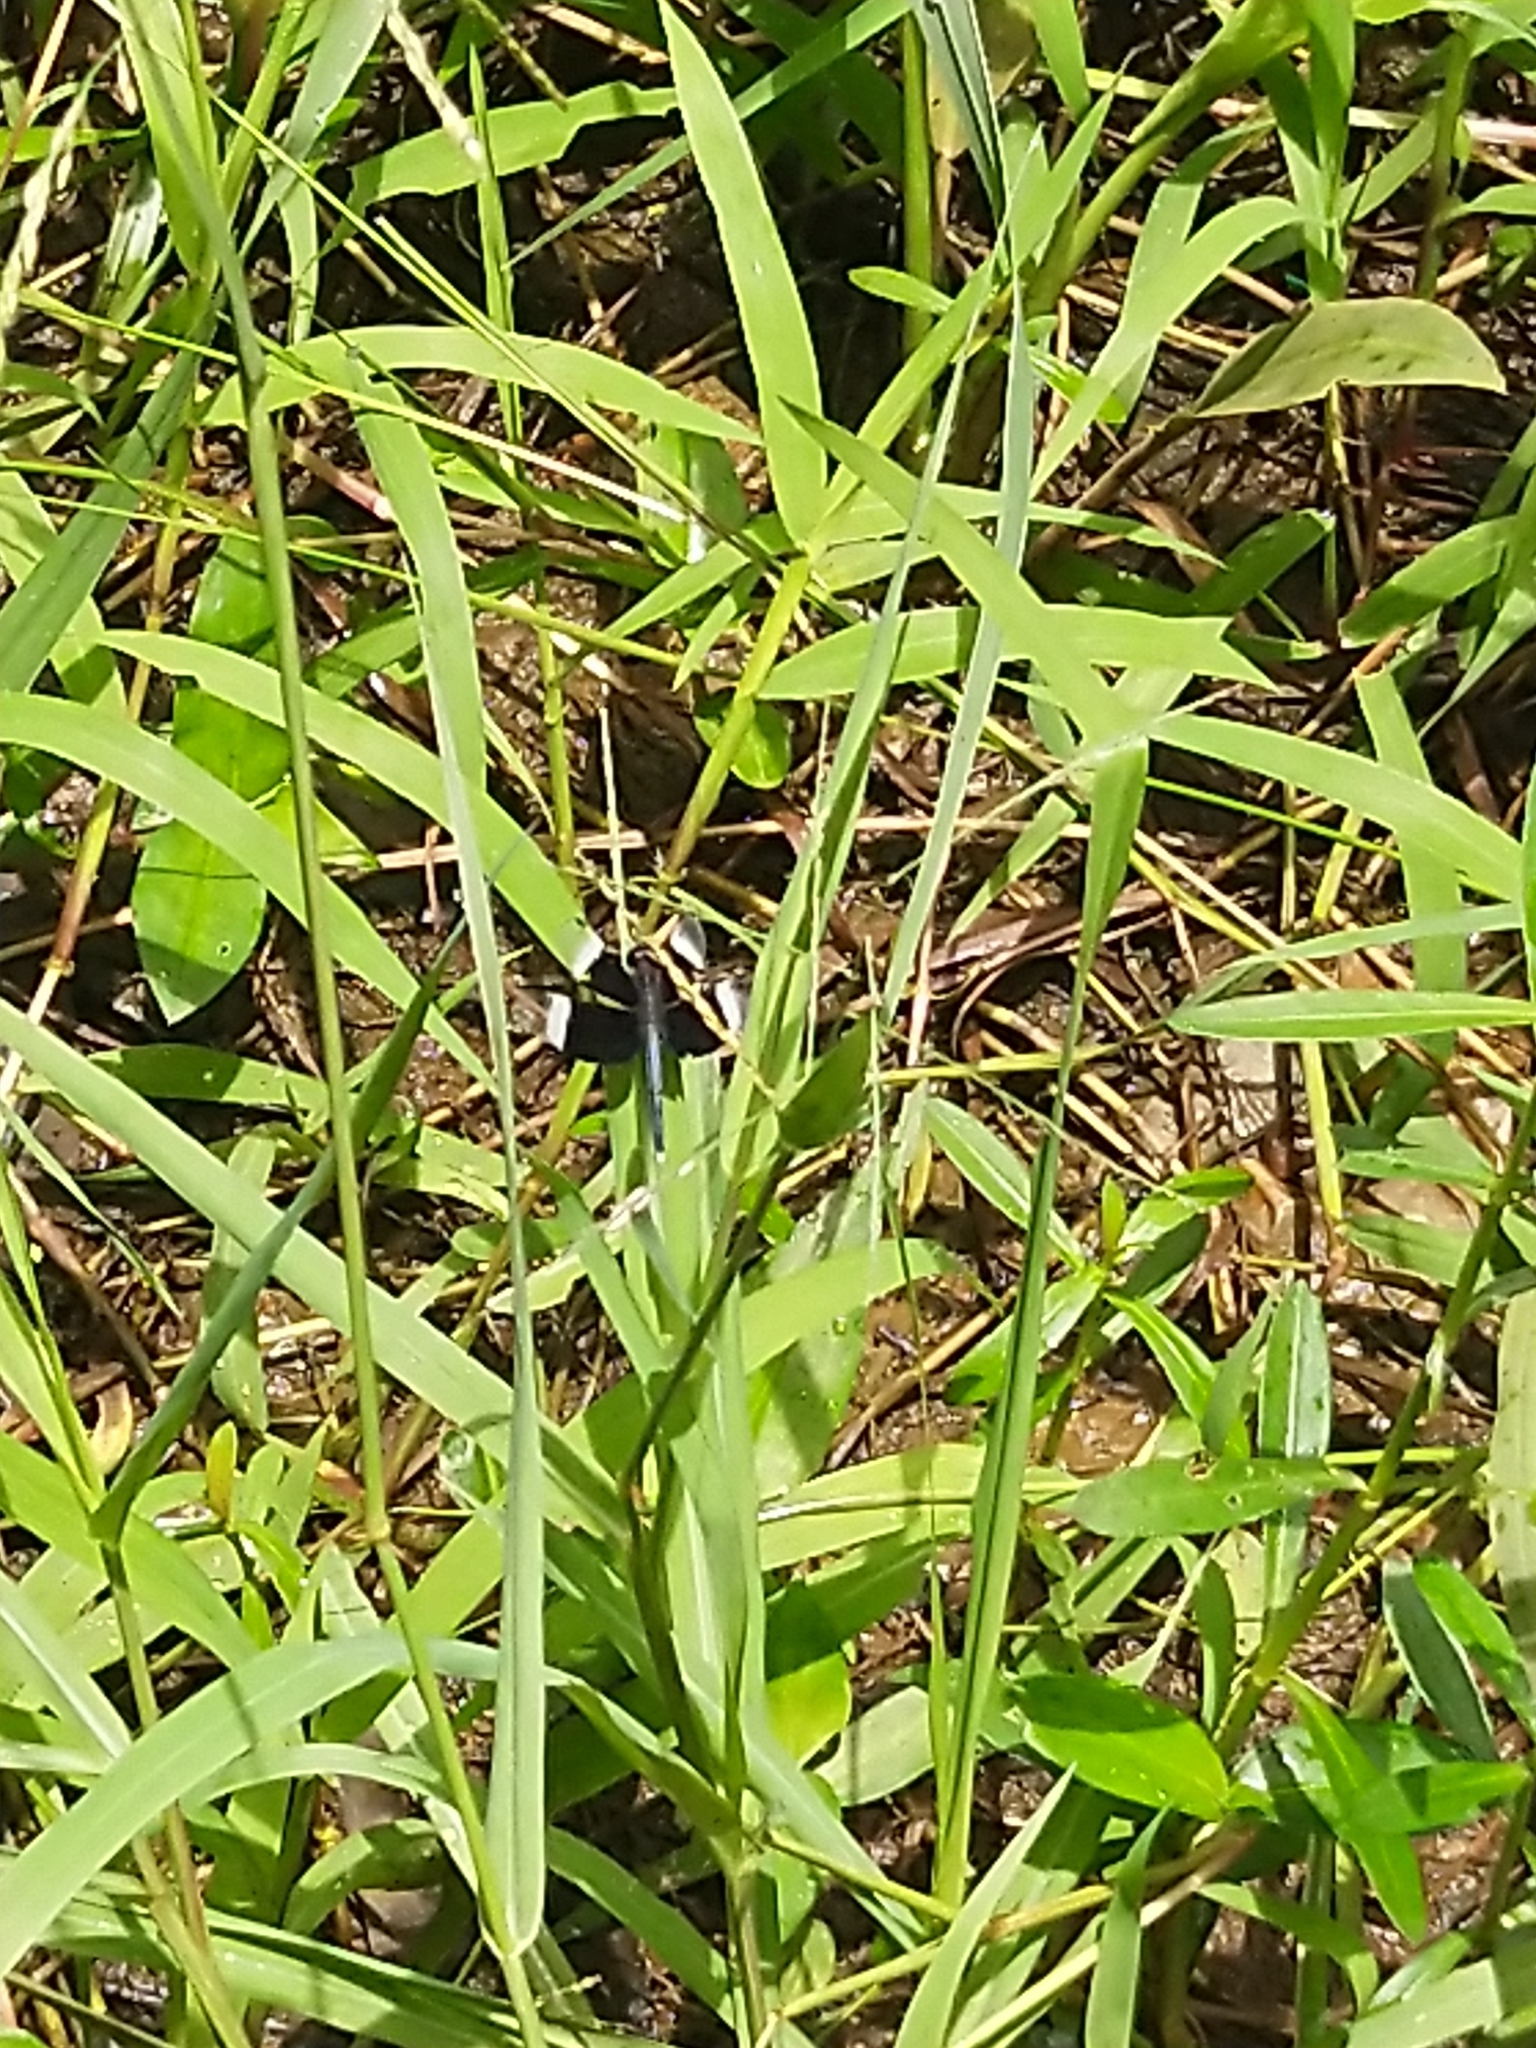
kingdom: Animalia
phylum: Arthropoda
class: Insecta
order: Odonata
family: Libellulidae
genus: Neurothemis
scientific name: Neurothemis tullia
